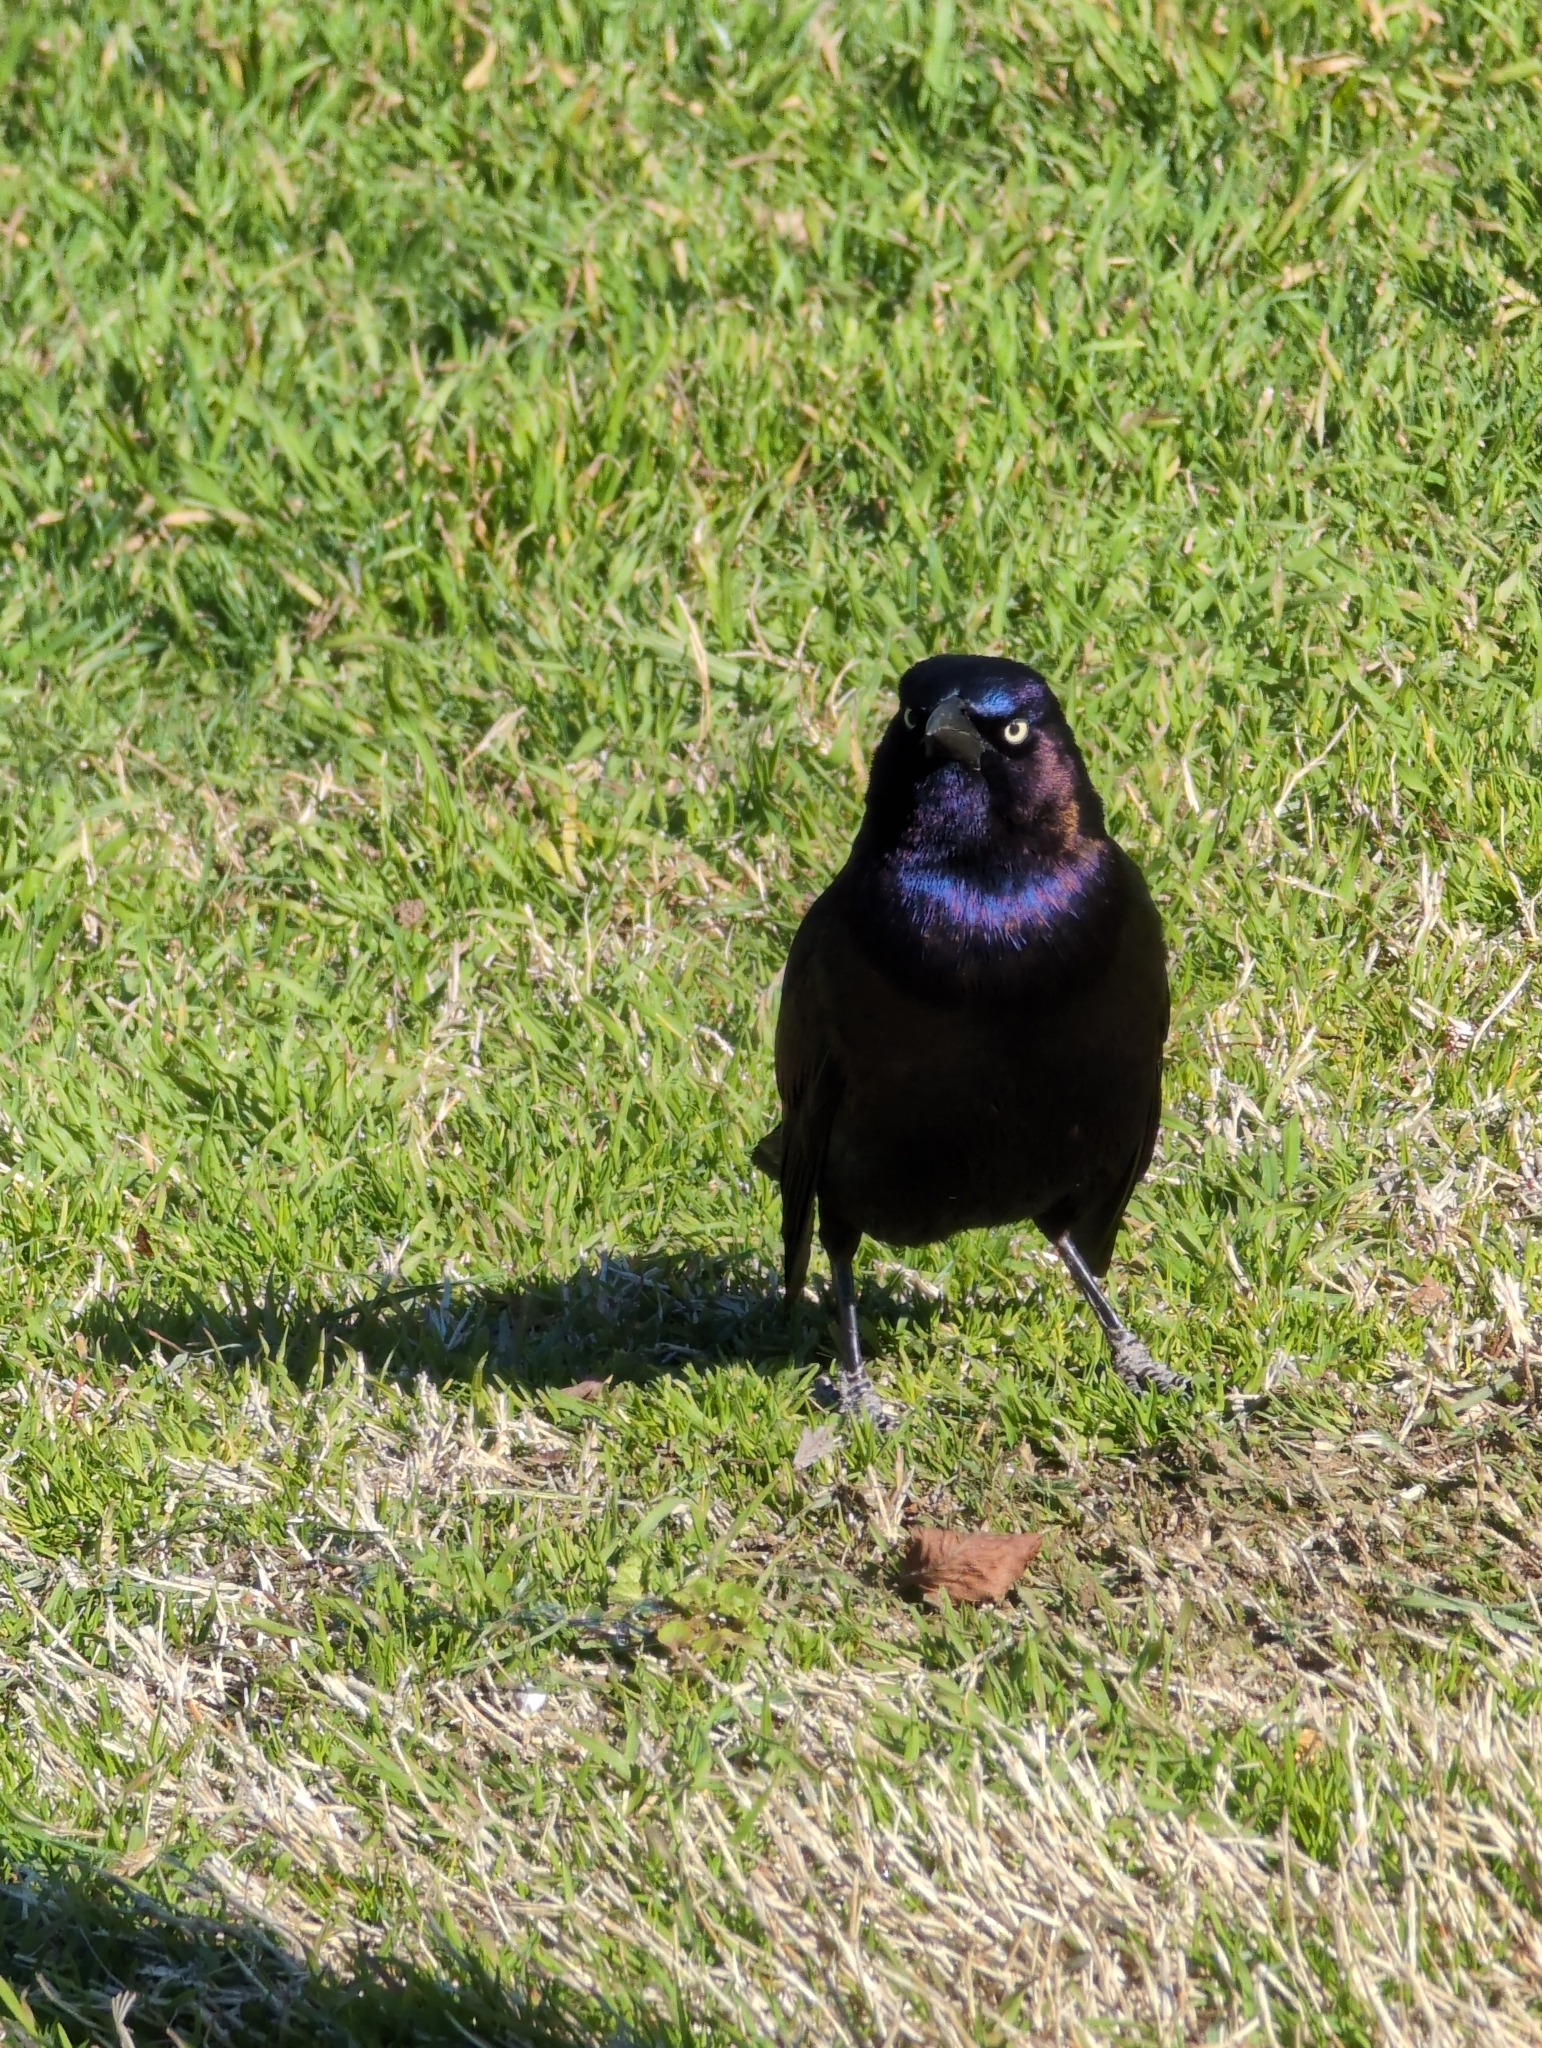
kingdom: Animalia
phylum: Chordata
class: Aves
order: Passeriformes
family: Icteridae
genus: Quiscalus
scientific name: Quiscalus quiscula
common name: Common grackle
